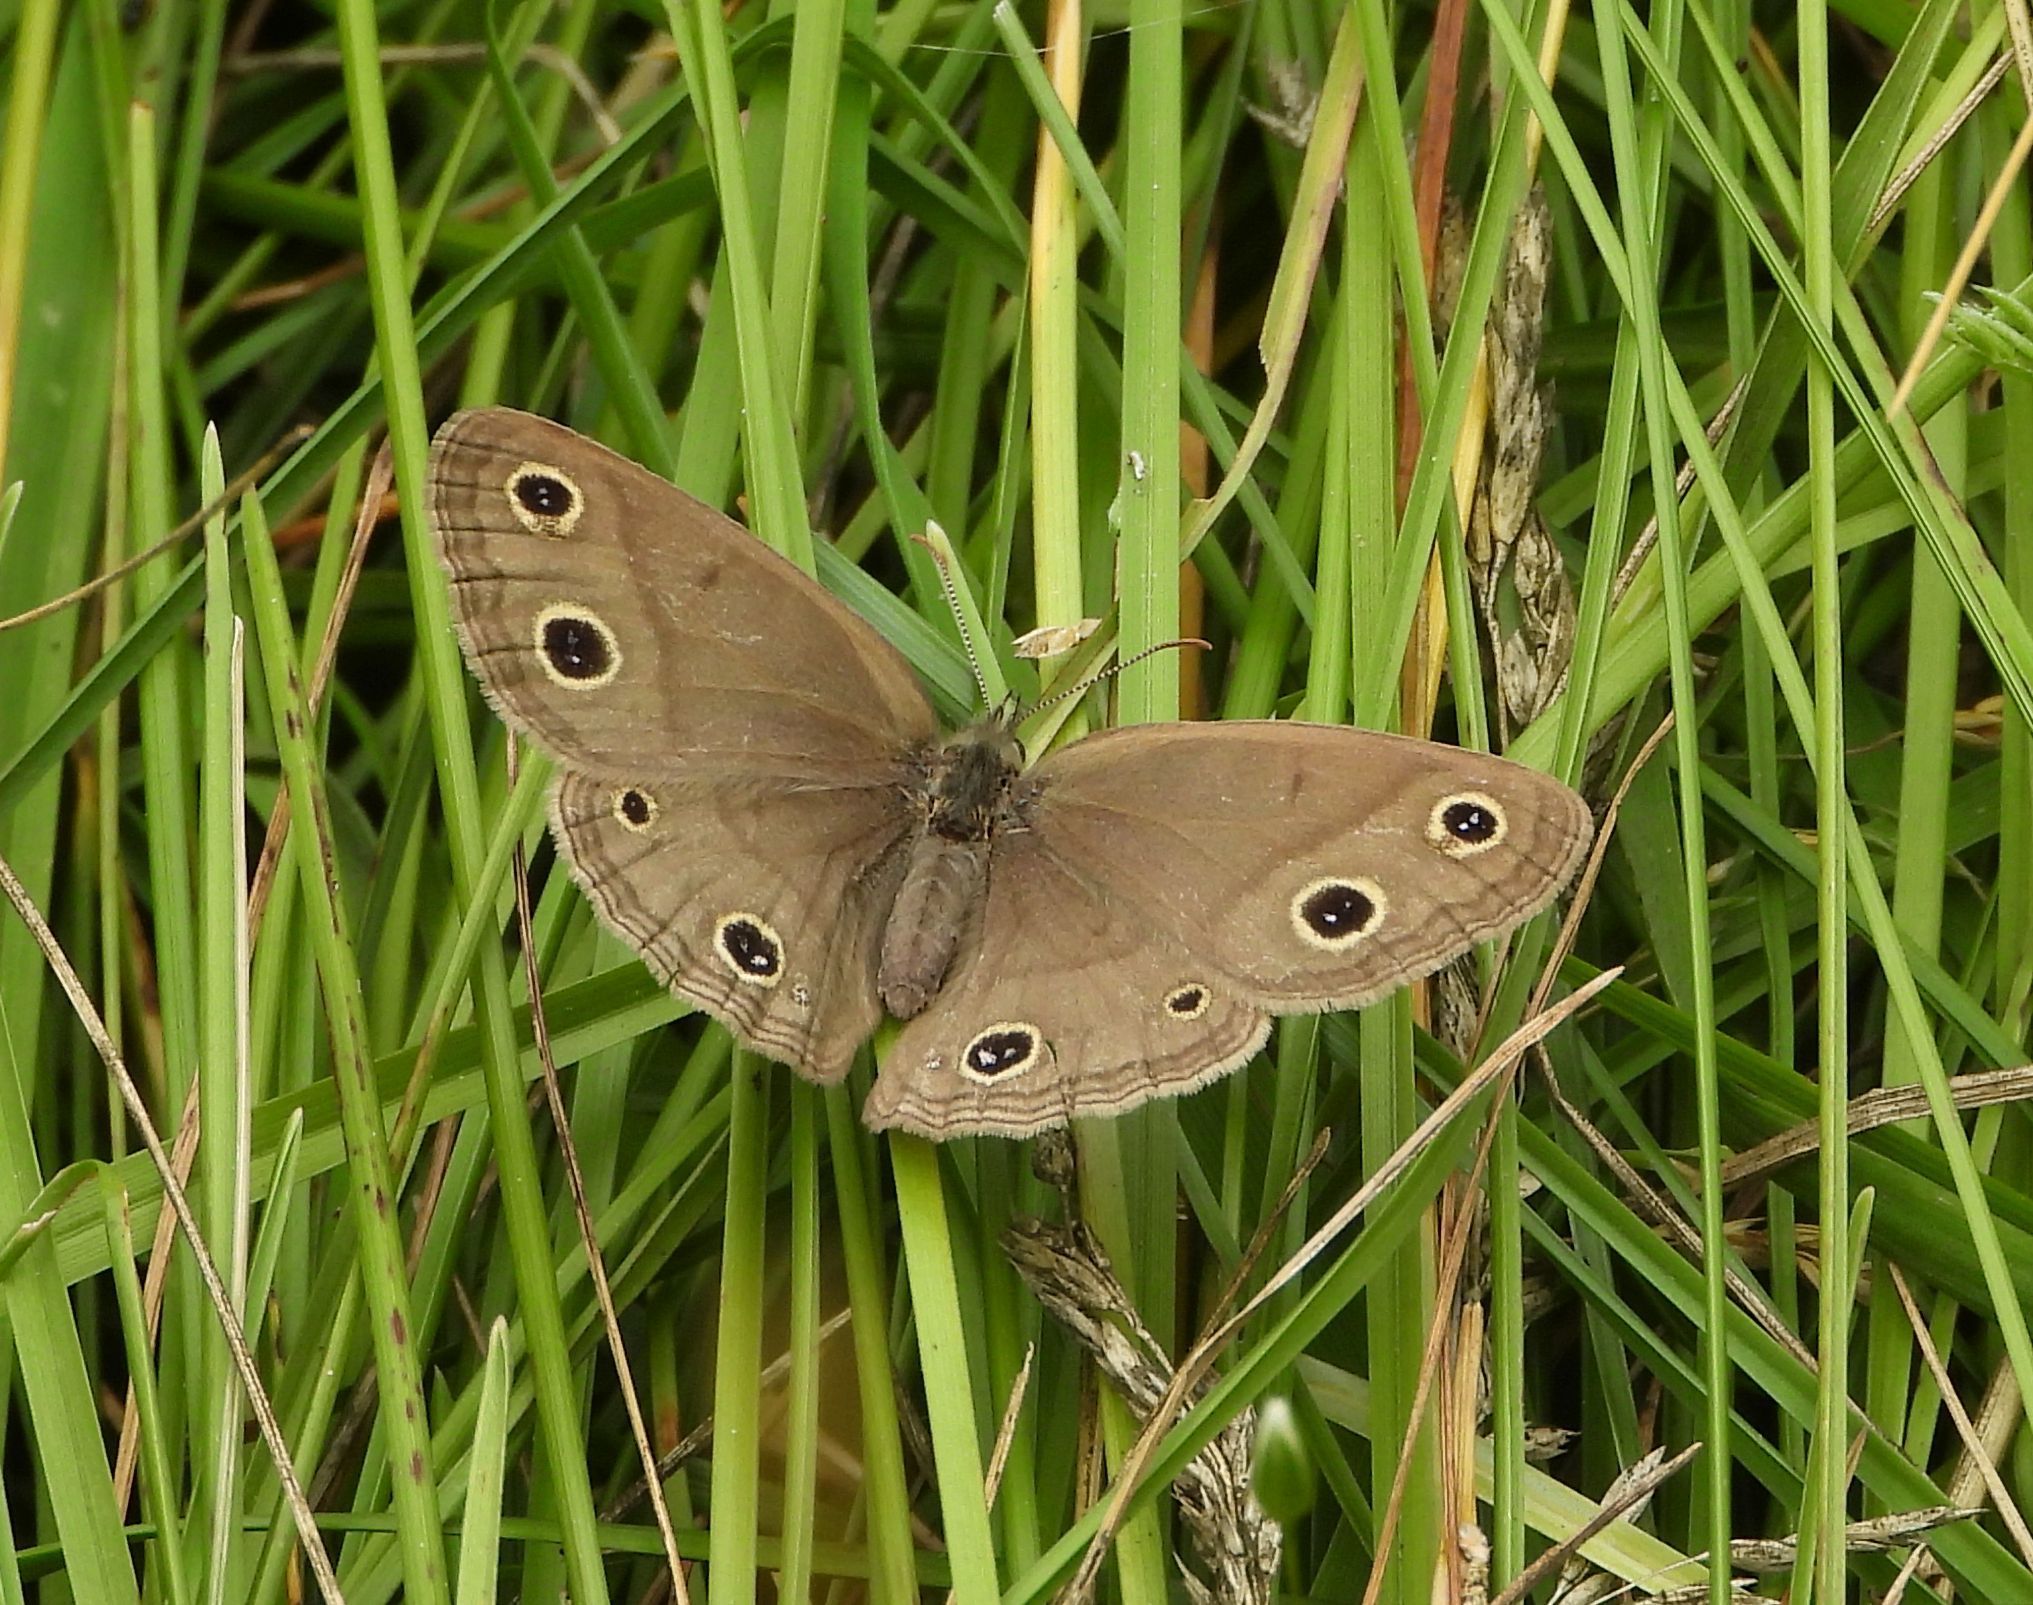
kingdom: Animalia
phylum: Arthropoda
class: Insecta
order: Lepidoptera
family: Nymphalidae
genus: Euptychia
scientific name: Euptychia cymela
